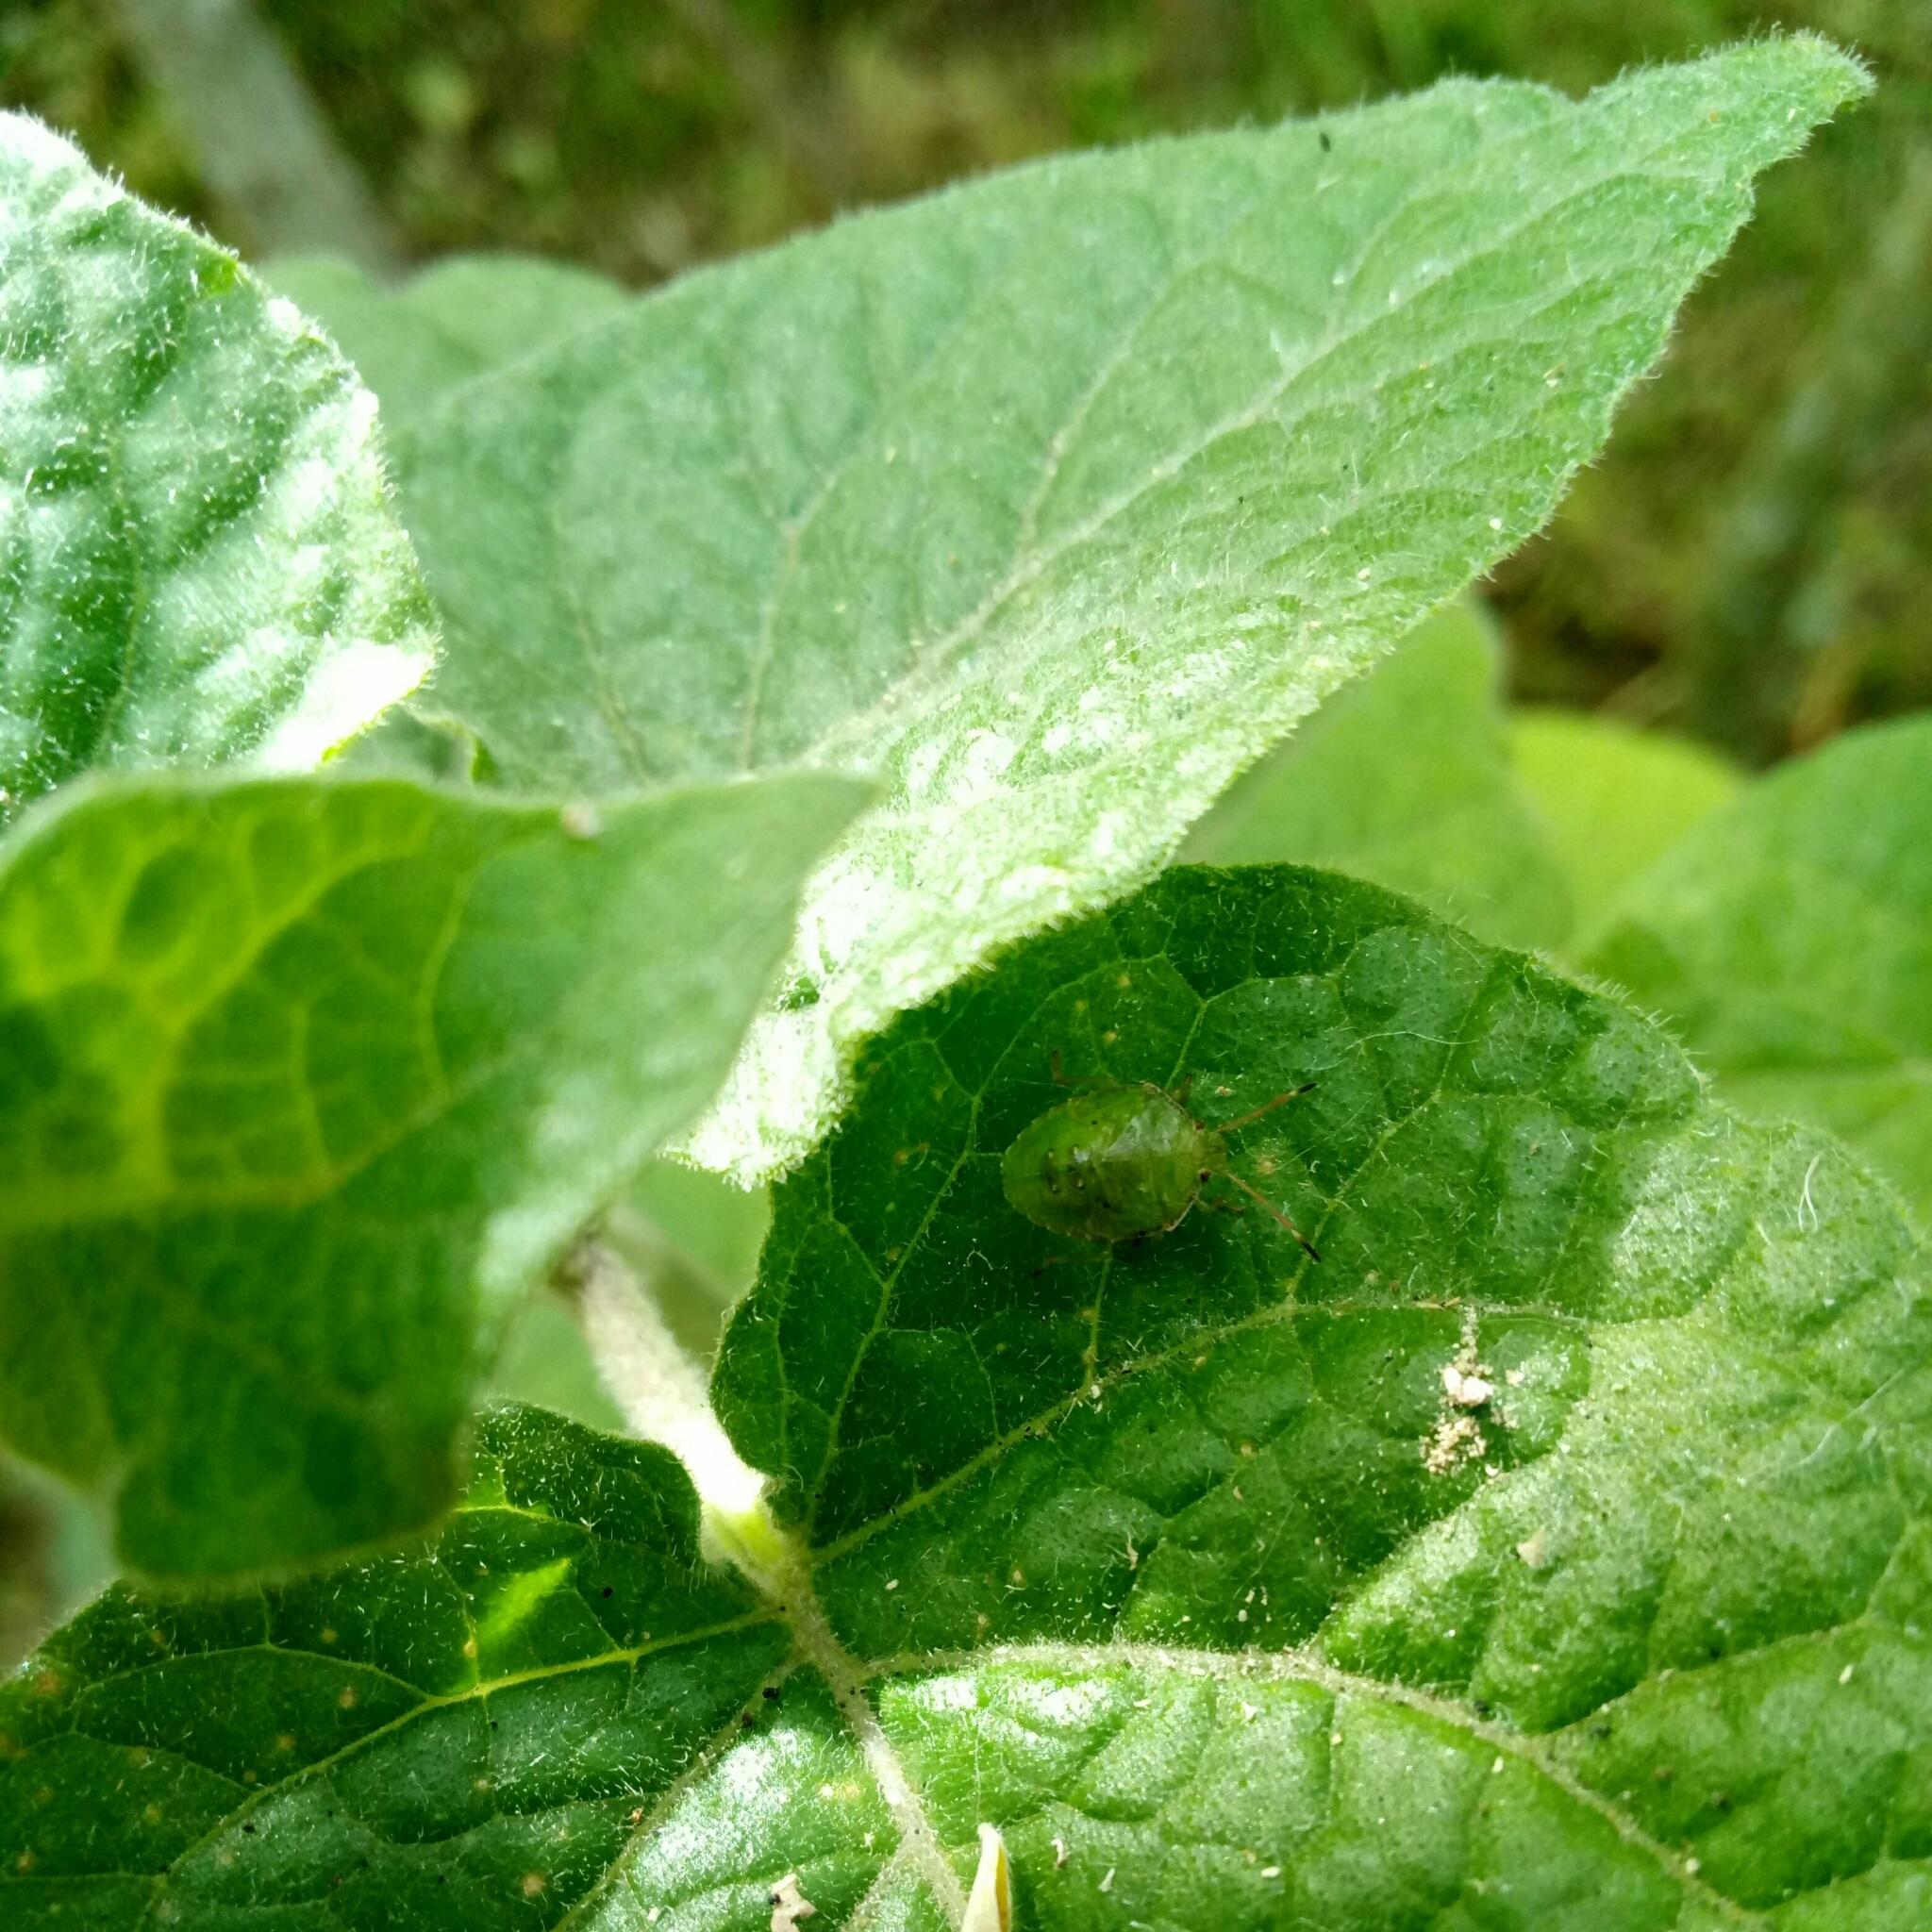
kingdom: Animalia
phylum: Arthropoda
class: Insecta
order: Hemiptera
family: Pentatomidae
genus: Cuspicona
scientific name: Cuspicona simplex
